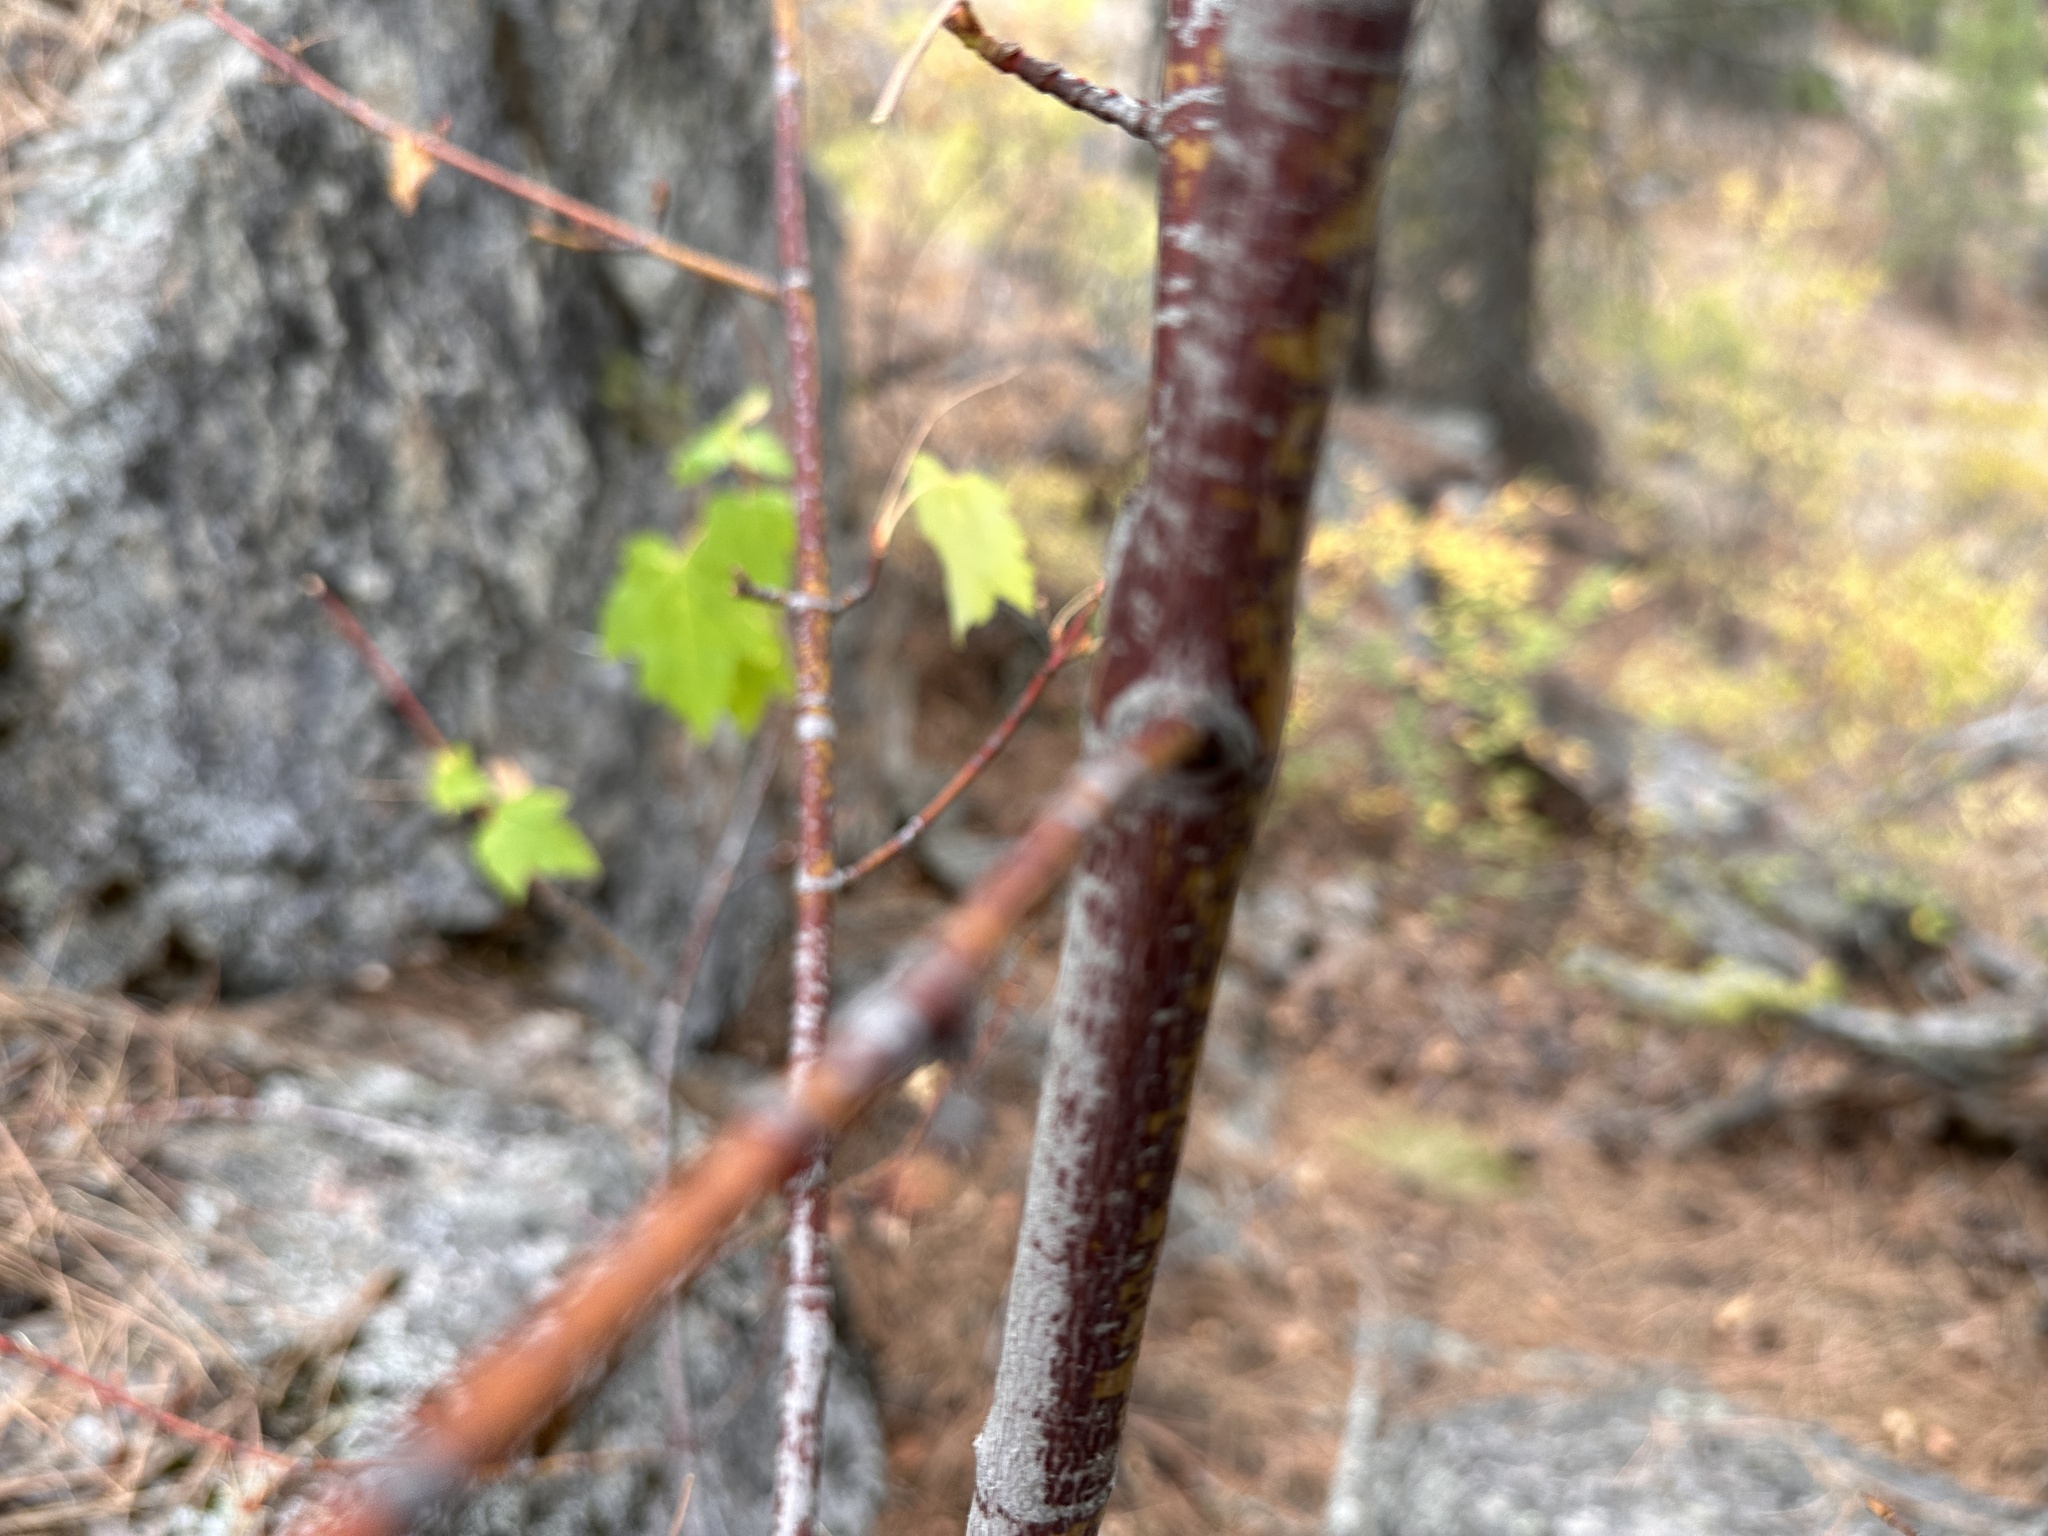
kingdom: Plantae
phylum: Tracheophyta
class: Magnoliopsida
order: Sapindales
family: Sapindaceae
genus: Acer
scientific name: Acer glabrum
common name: Rocky mountain maple
